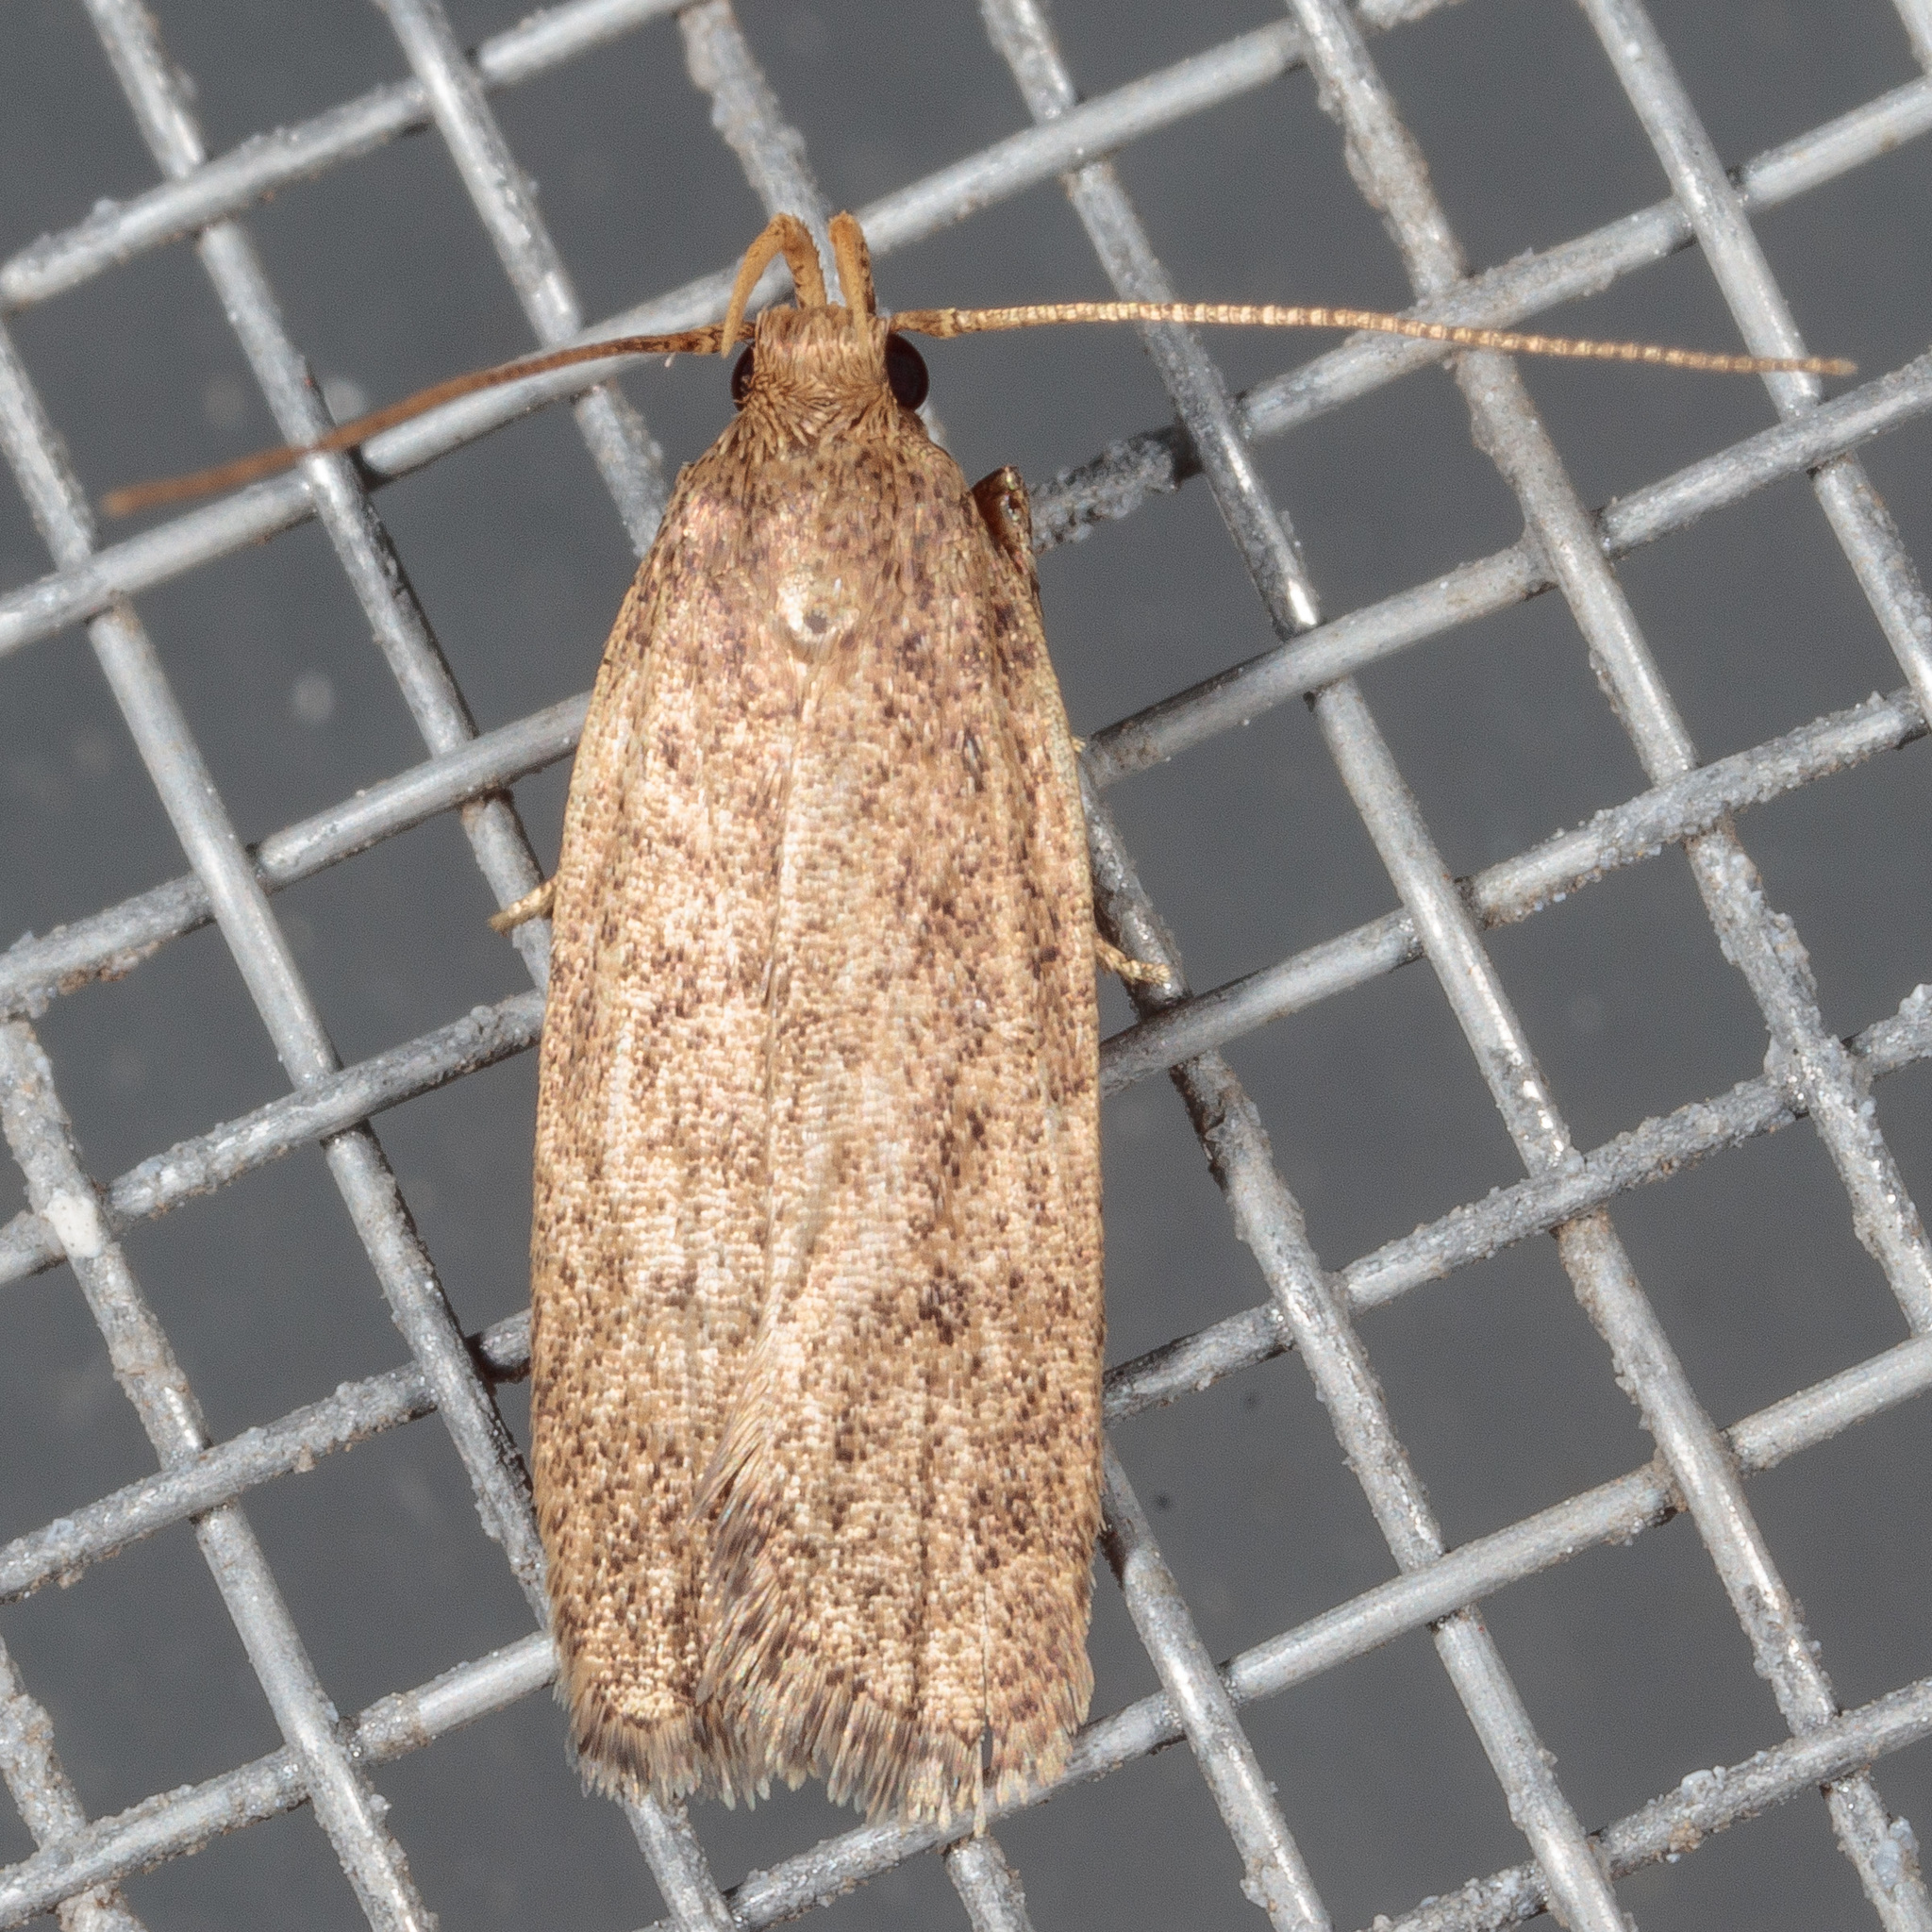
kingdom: Animalia
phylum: Arthropoda
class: Insecta
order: Lepidoptera
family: Autostichidae
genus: Glyphidocera
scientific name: Glyphidocera juniperella
